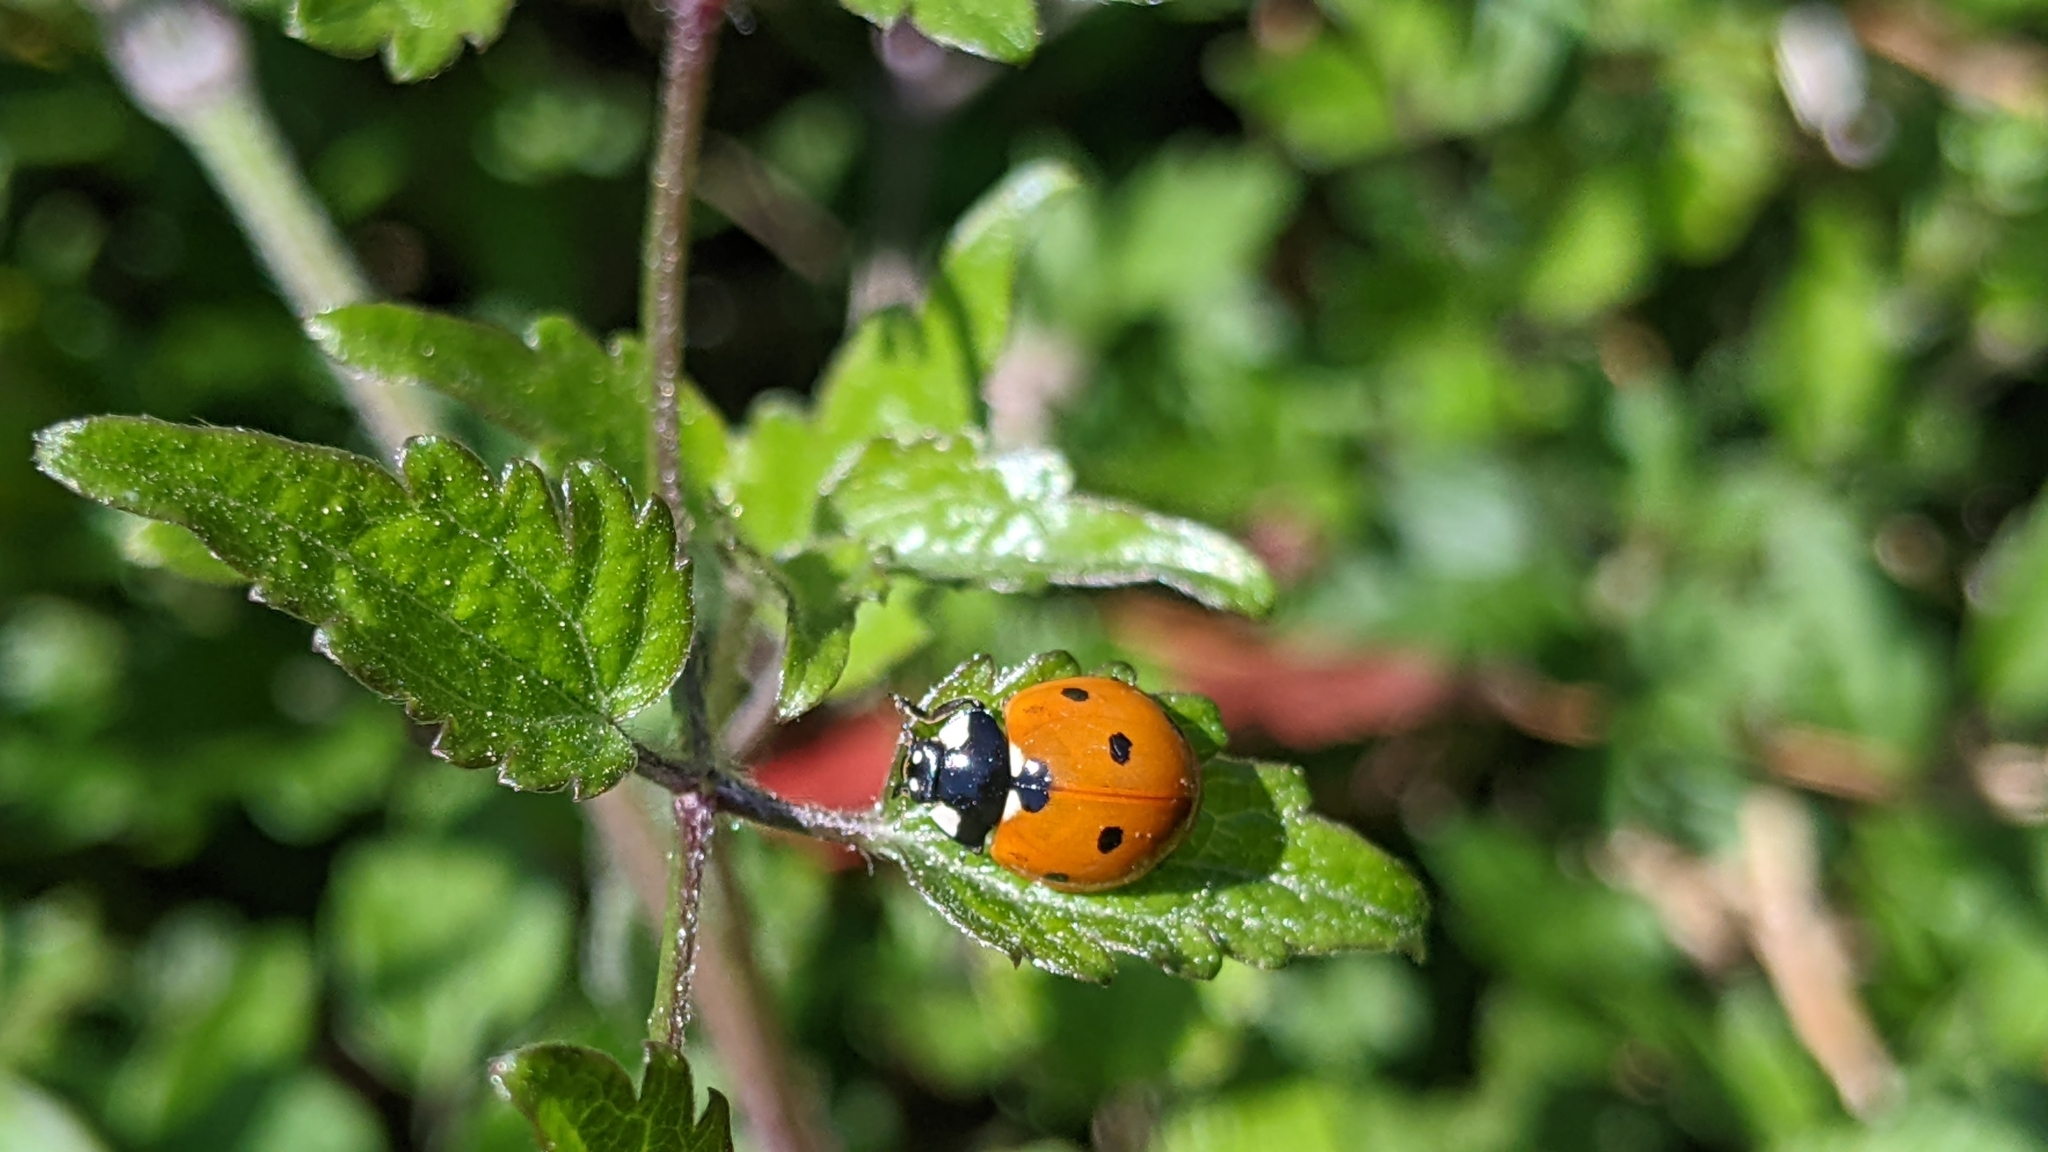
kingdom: Animalia
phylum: Arthropoda
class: Insecta
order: Coleoptera
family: Coccinellidae
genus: Coccinella
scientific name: Coccinella septempunctata
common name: Sevenspotted lady beetle
